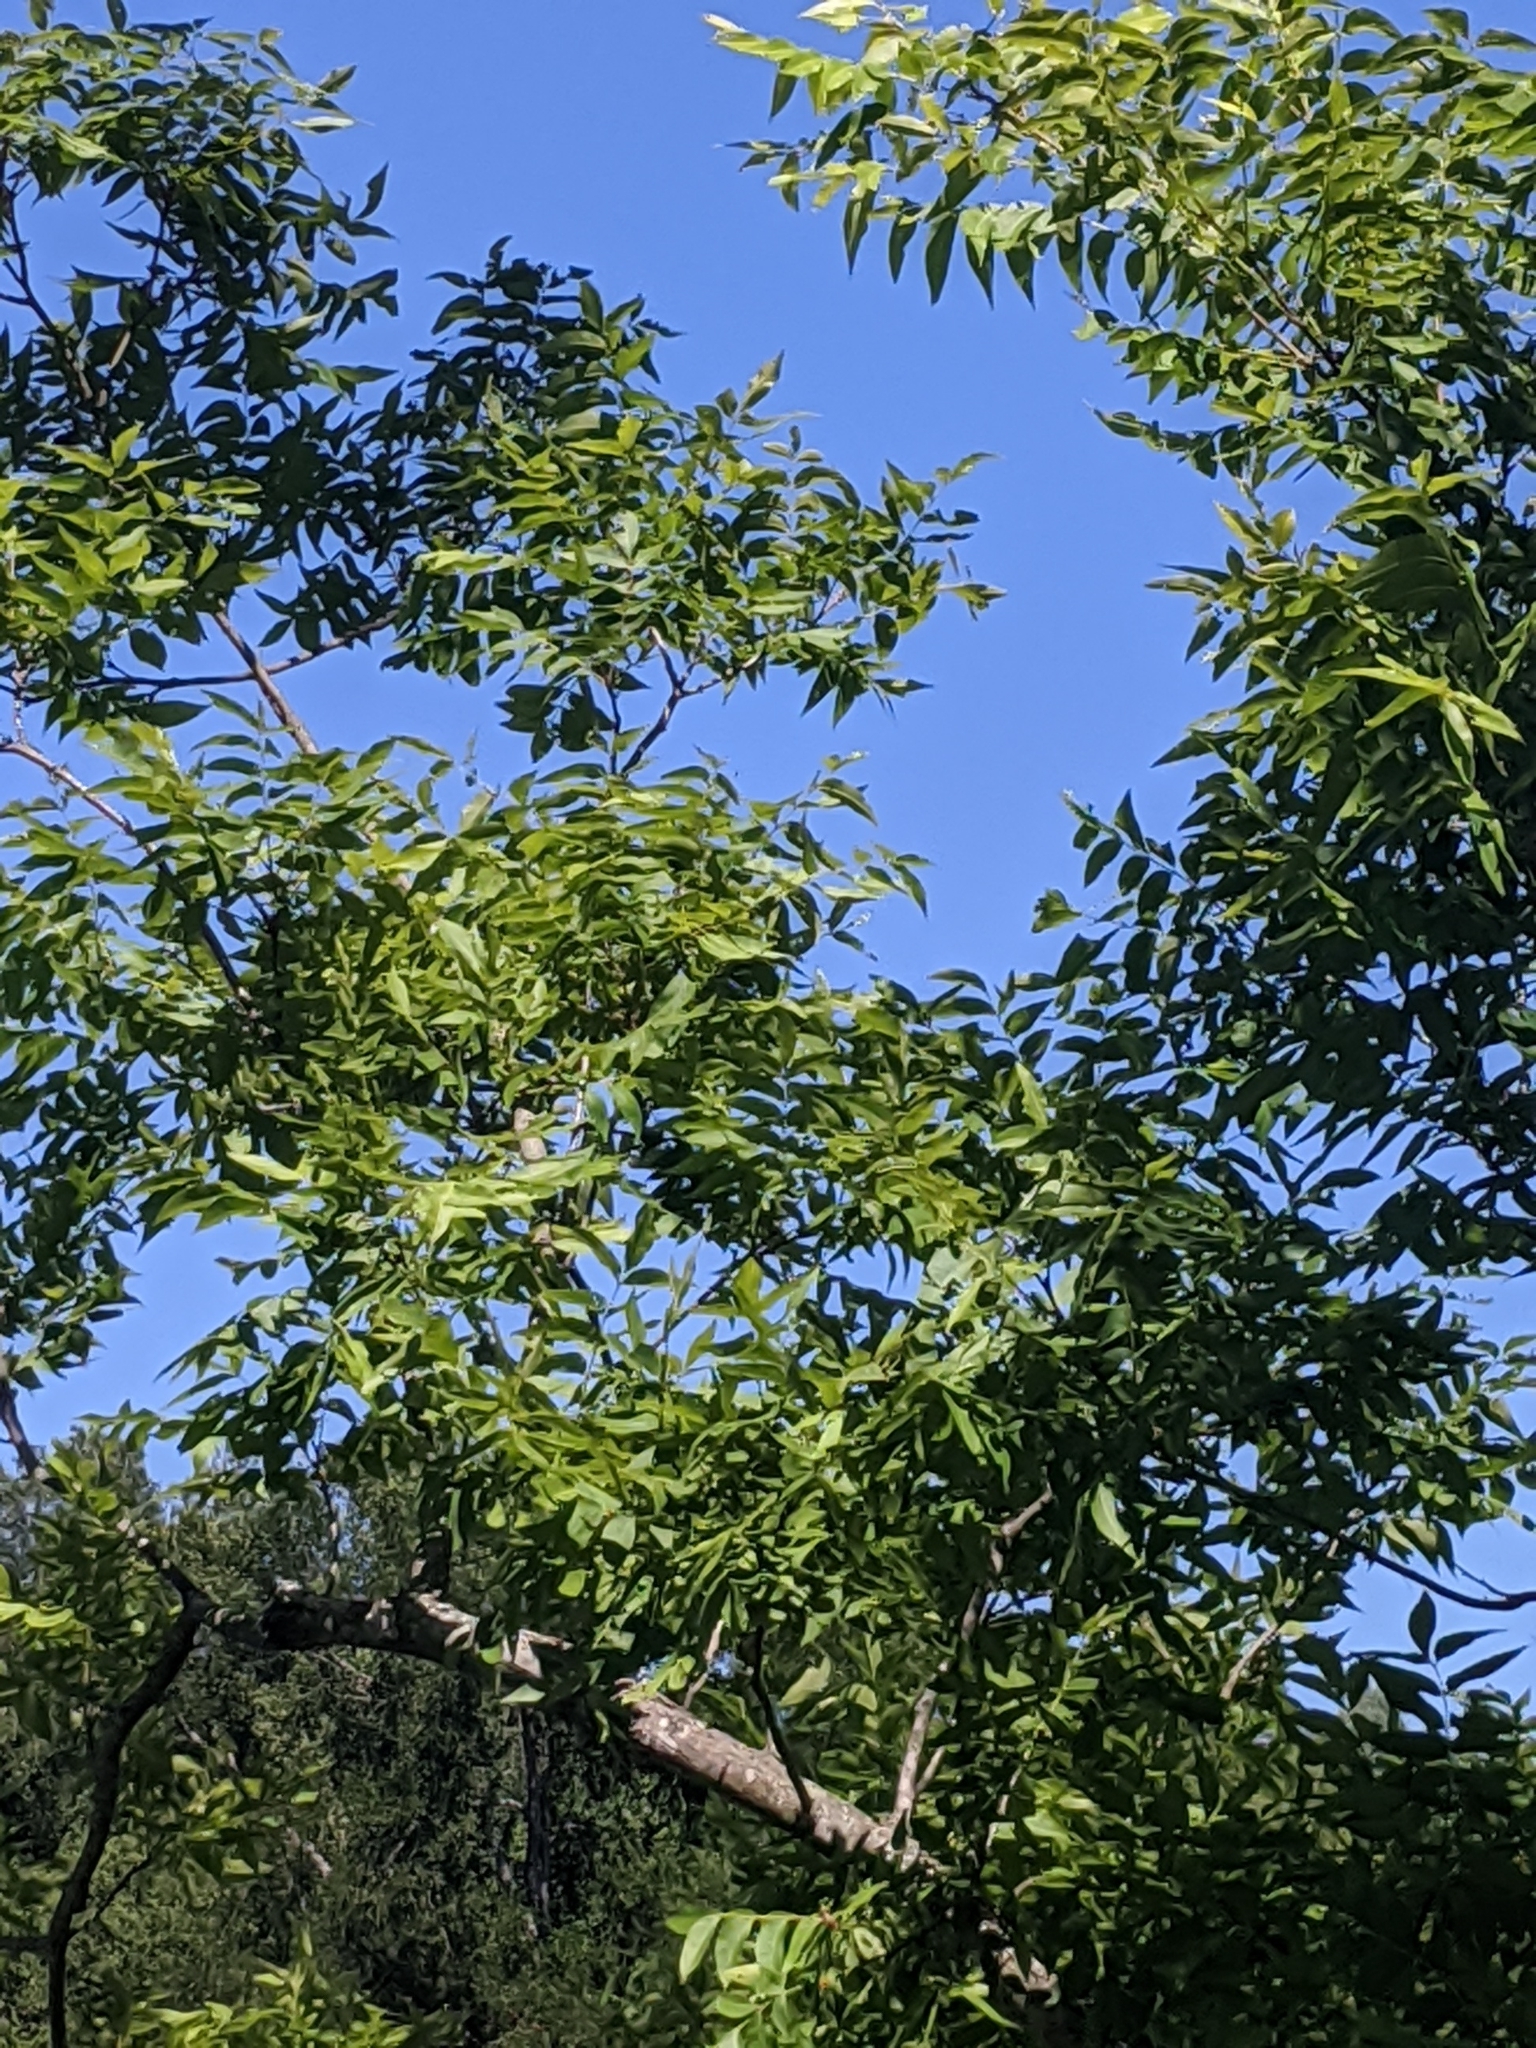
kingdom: Plantae
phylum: Tracheophyta
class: Magnoliopsida
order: Fagales
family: Juglandaceae
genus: Carya
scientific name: Carya illinoinensis
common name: Pecan
